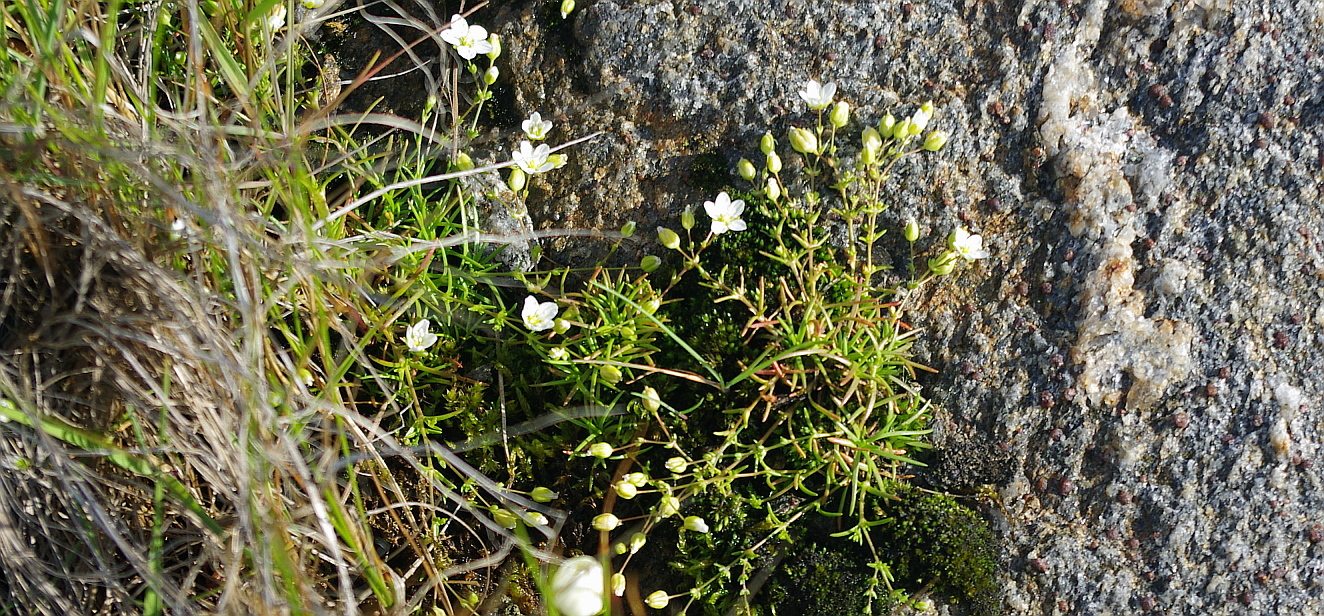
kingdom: Plantae
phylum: Tracheophyta
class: Magnoliopsida
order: Caryophyllales
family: Caryophyllaceae
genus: Sagina
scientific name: Sagina nodosa
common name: Knotted pearlwort
